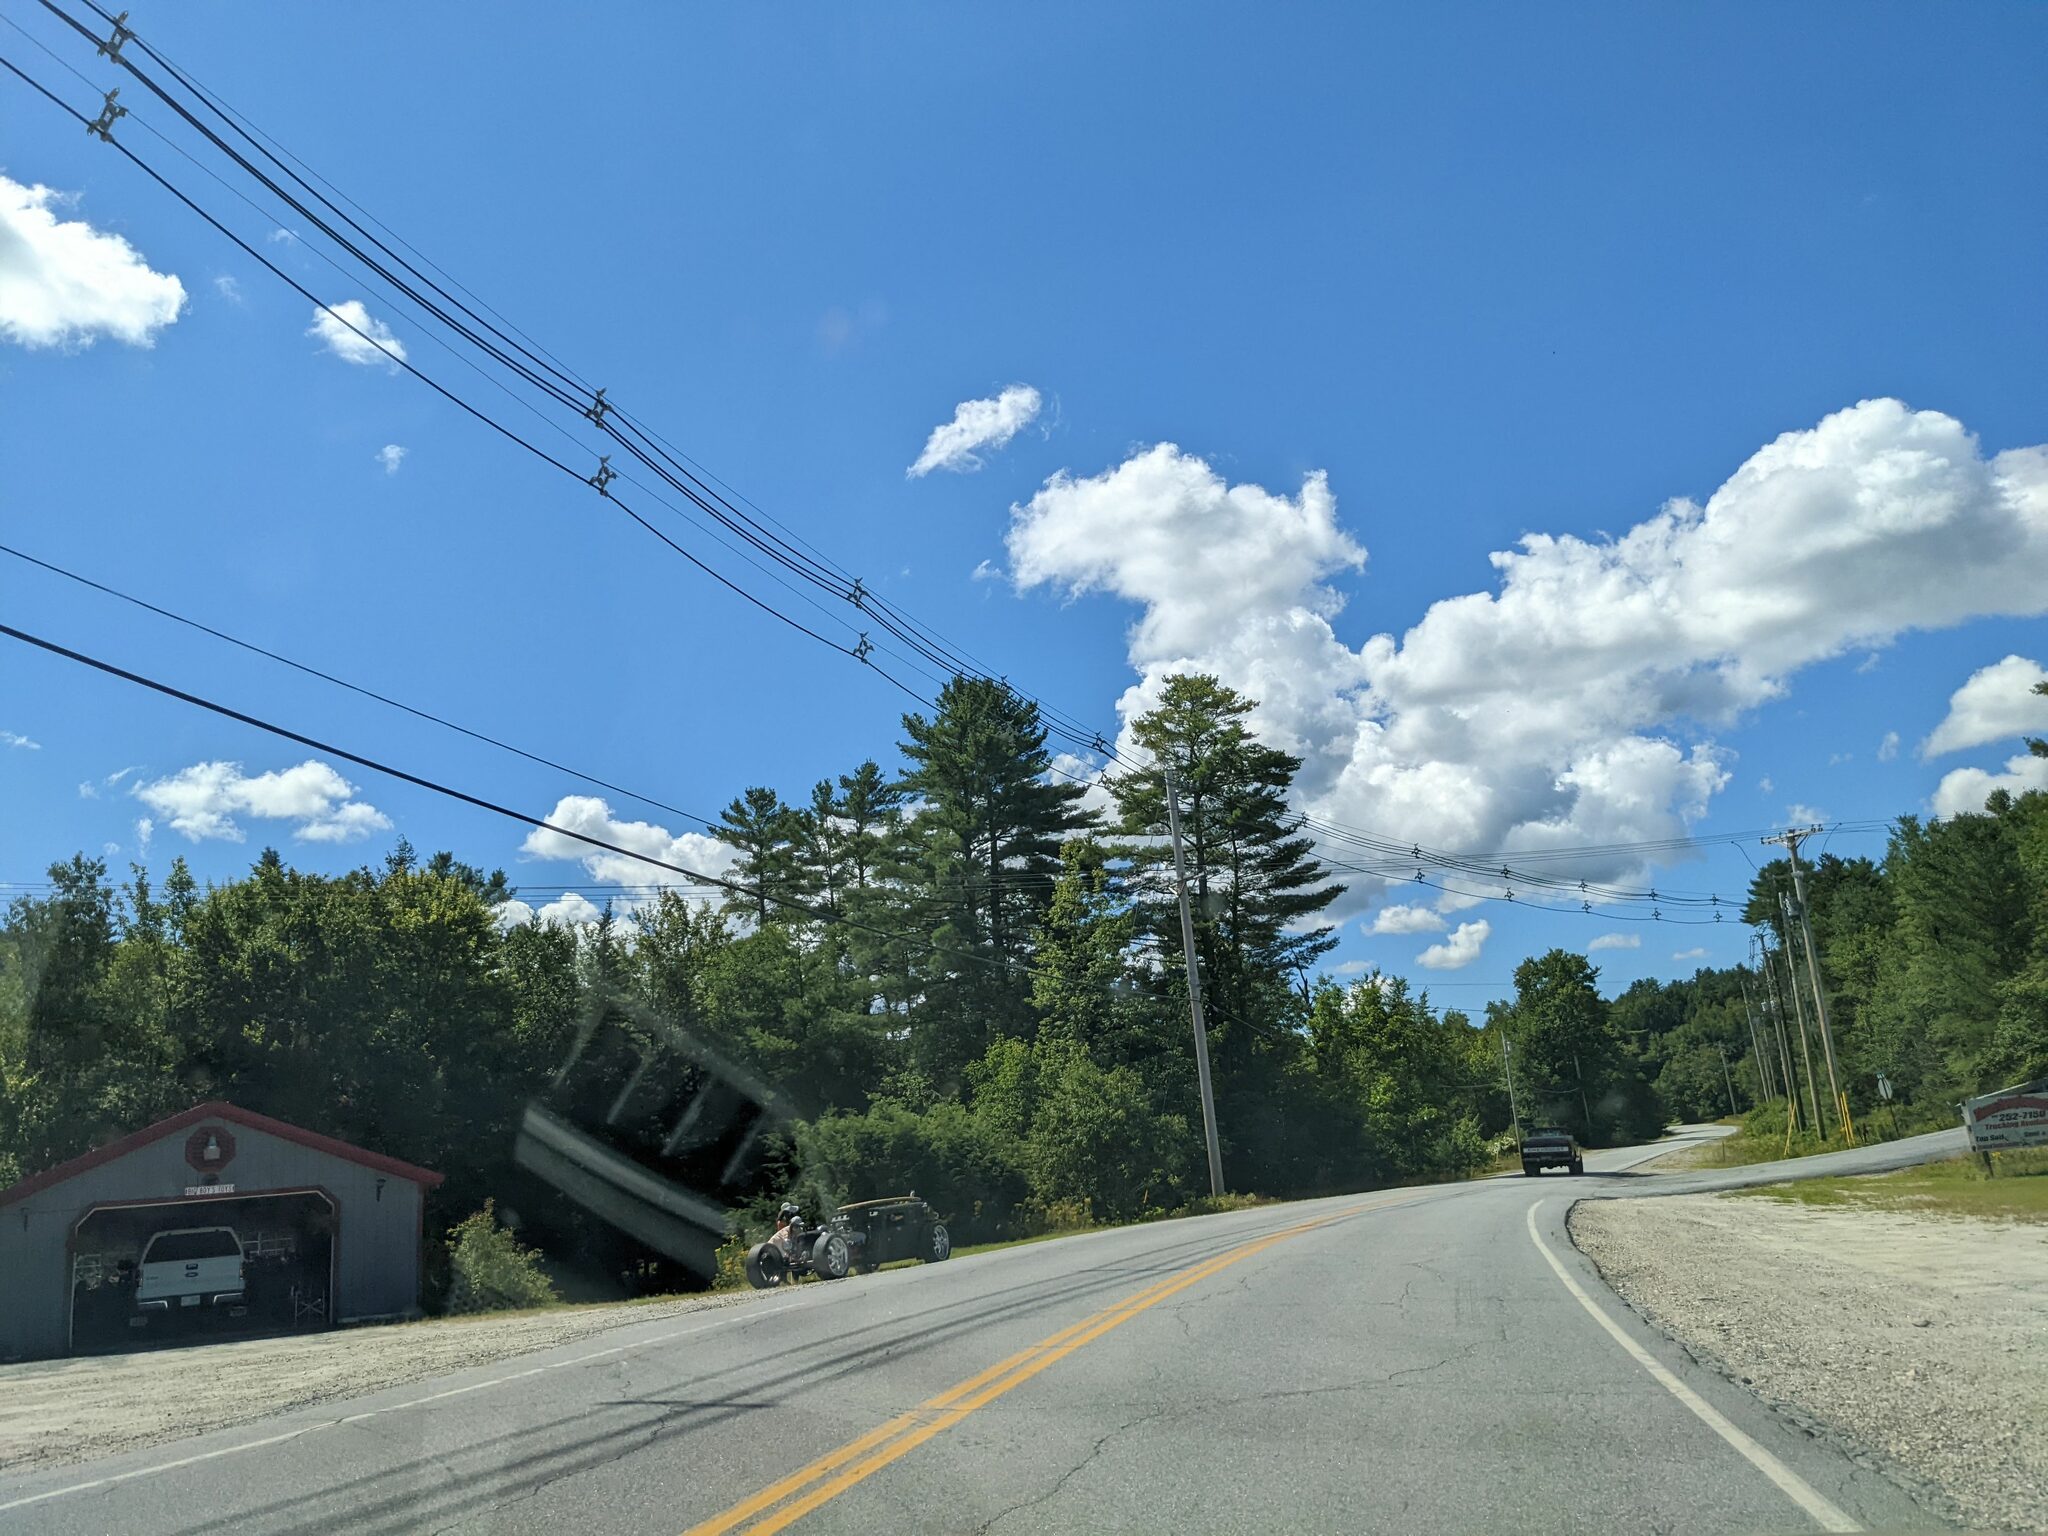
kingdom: Plantae
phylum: Tracheophyta
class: Pinopsida
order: Pinales
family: Pinaceae
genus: Pinus
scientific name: Pinus strobus
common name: Weymouth pine
